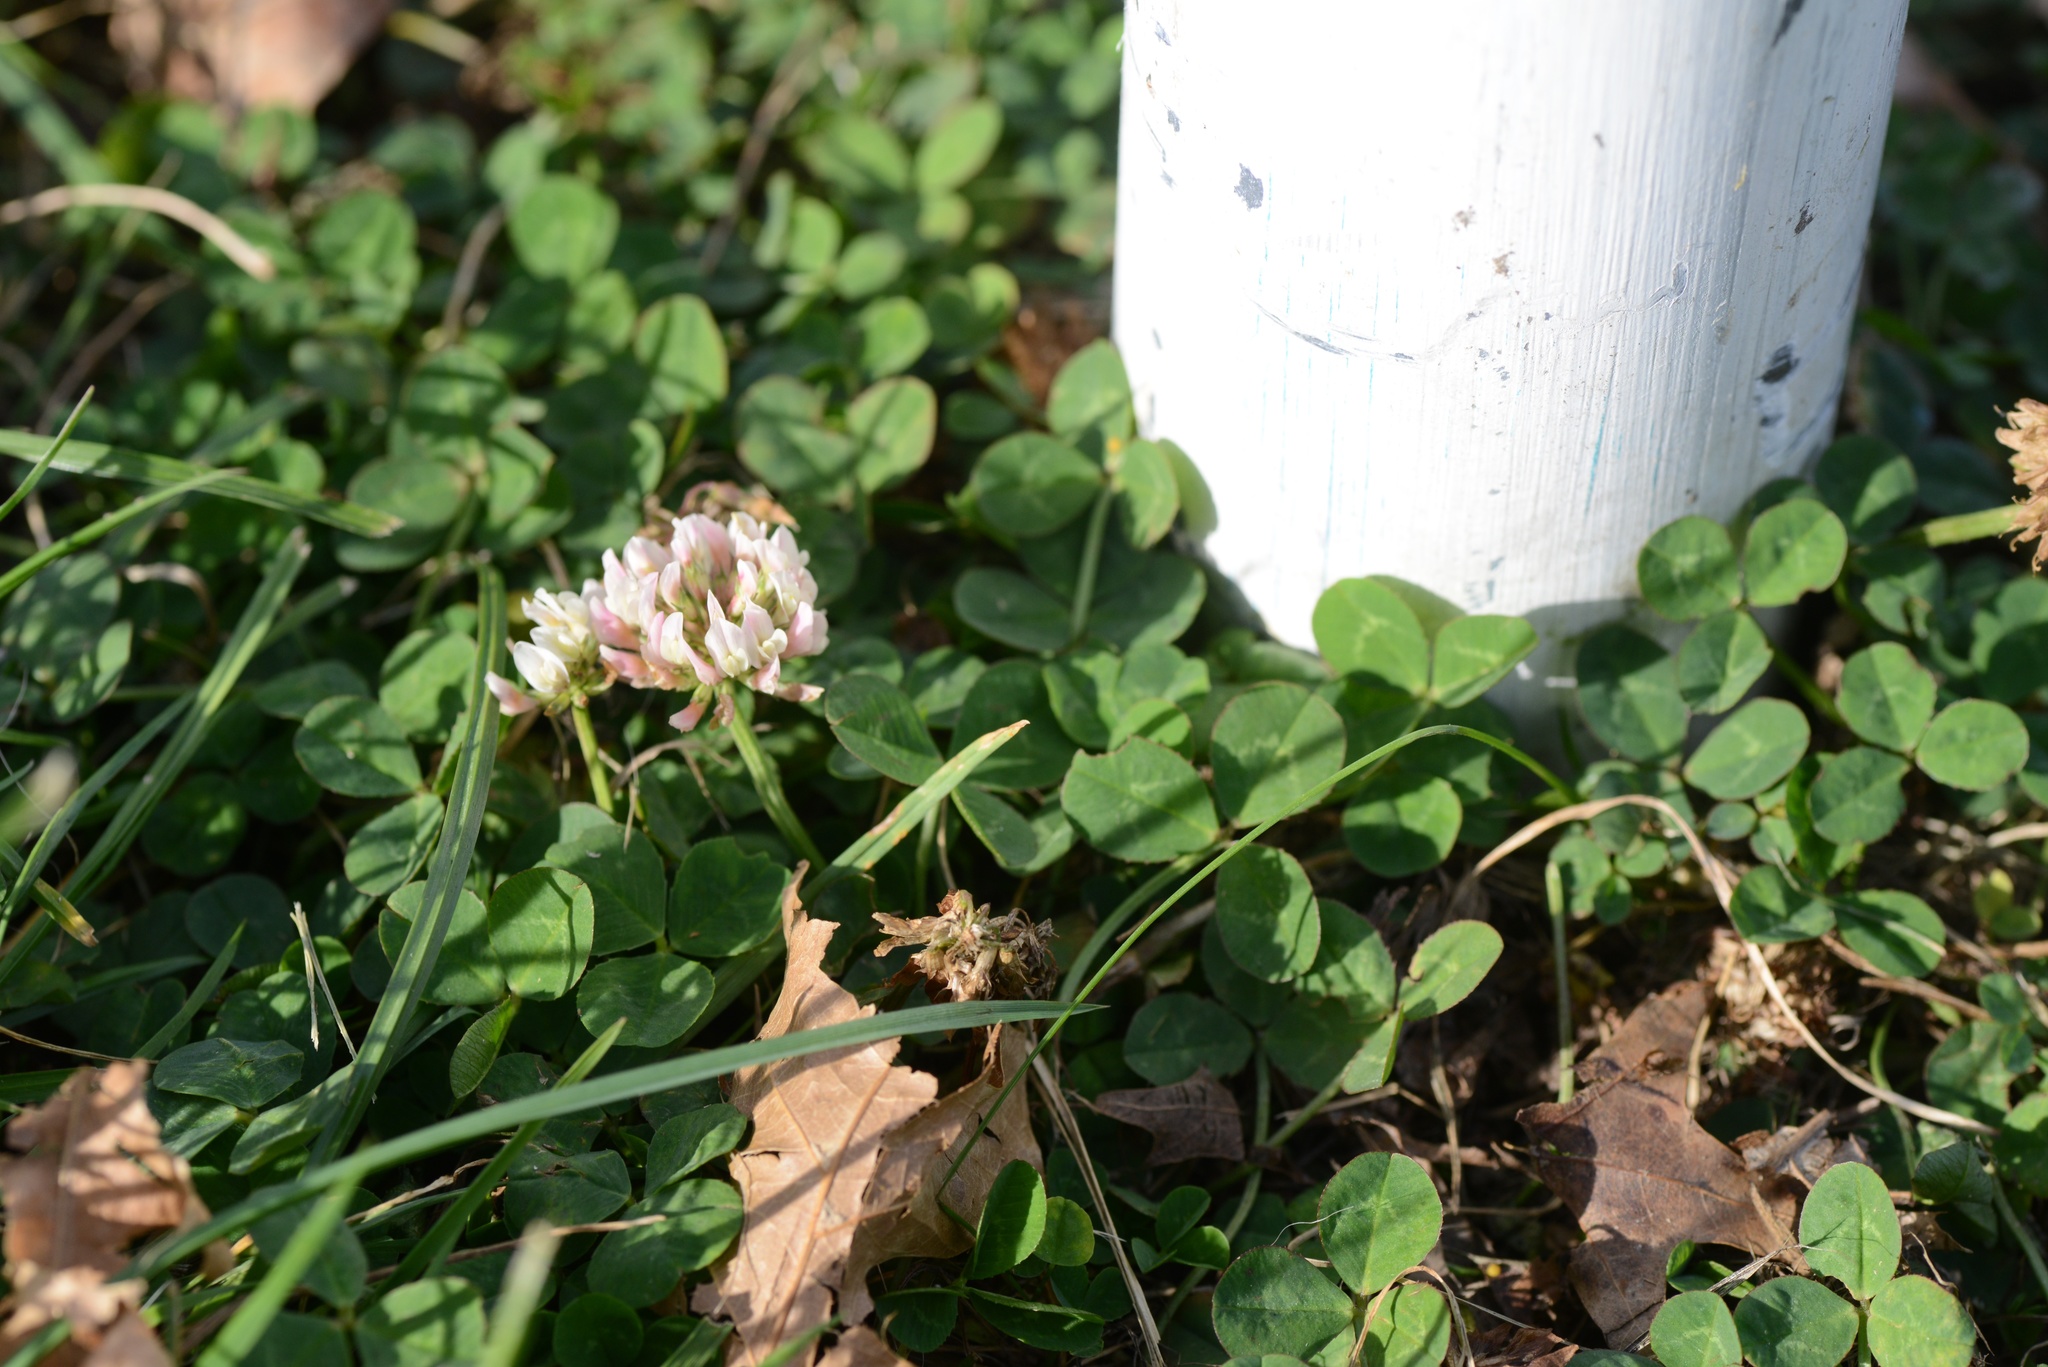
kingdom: Plantae
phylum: Tracheophyta
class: Magnoliopsida
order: Fabales
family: Fabaceae
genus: Trifolium
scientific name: Trifolium repens
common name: White clover
